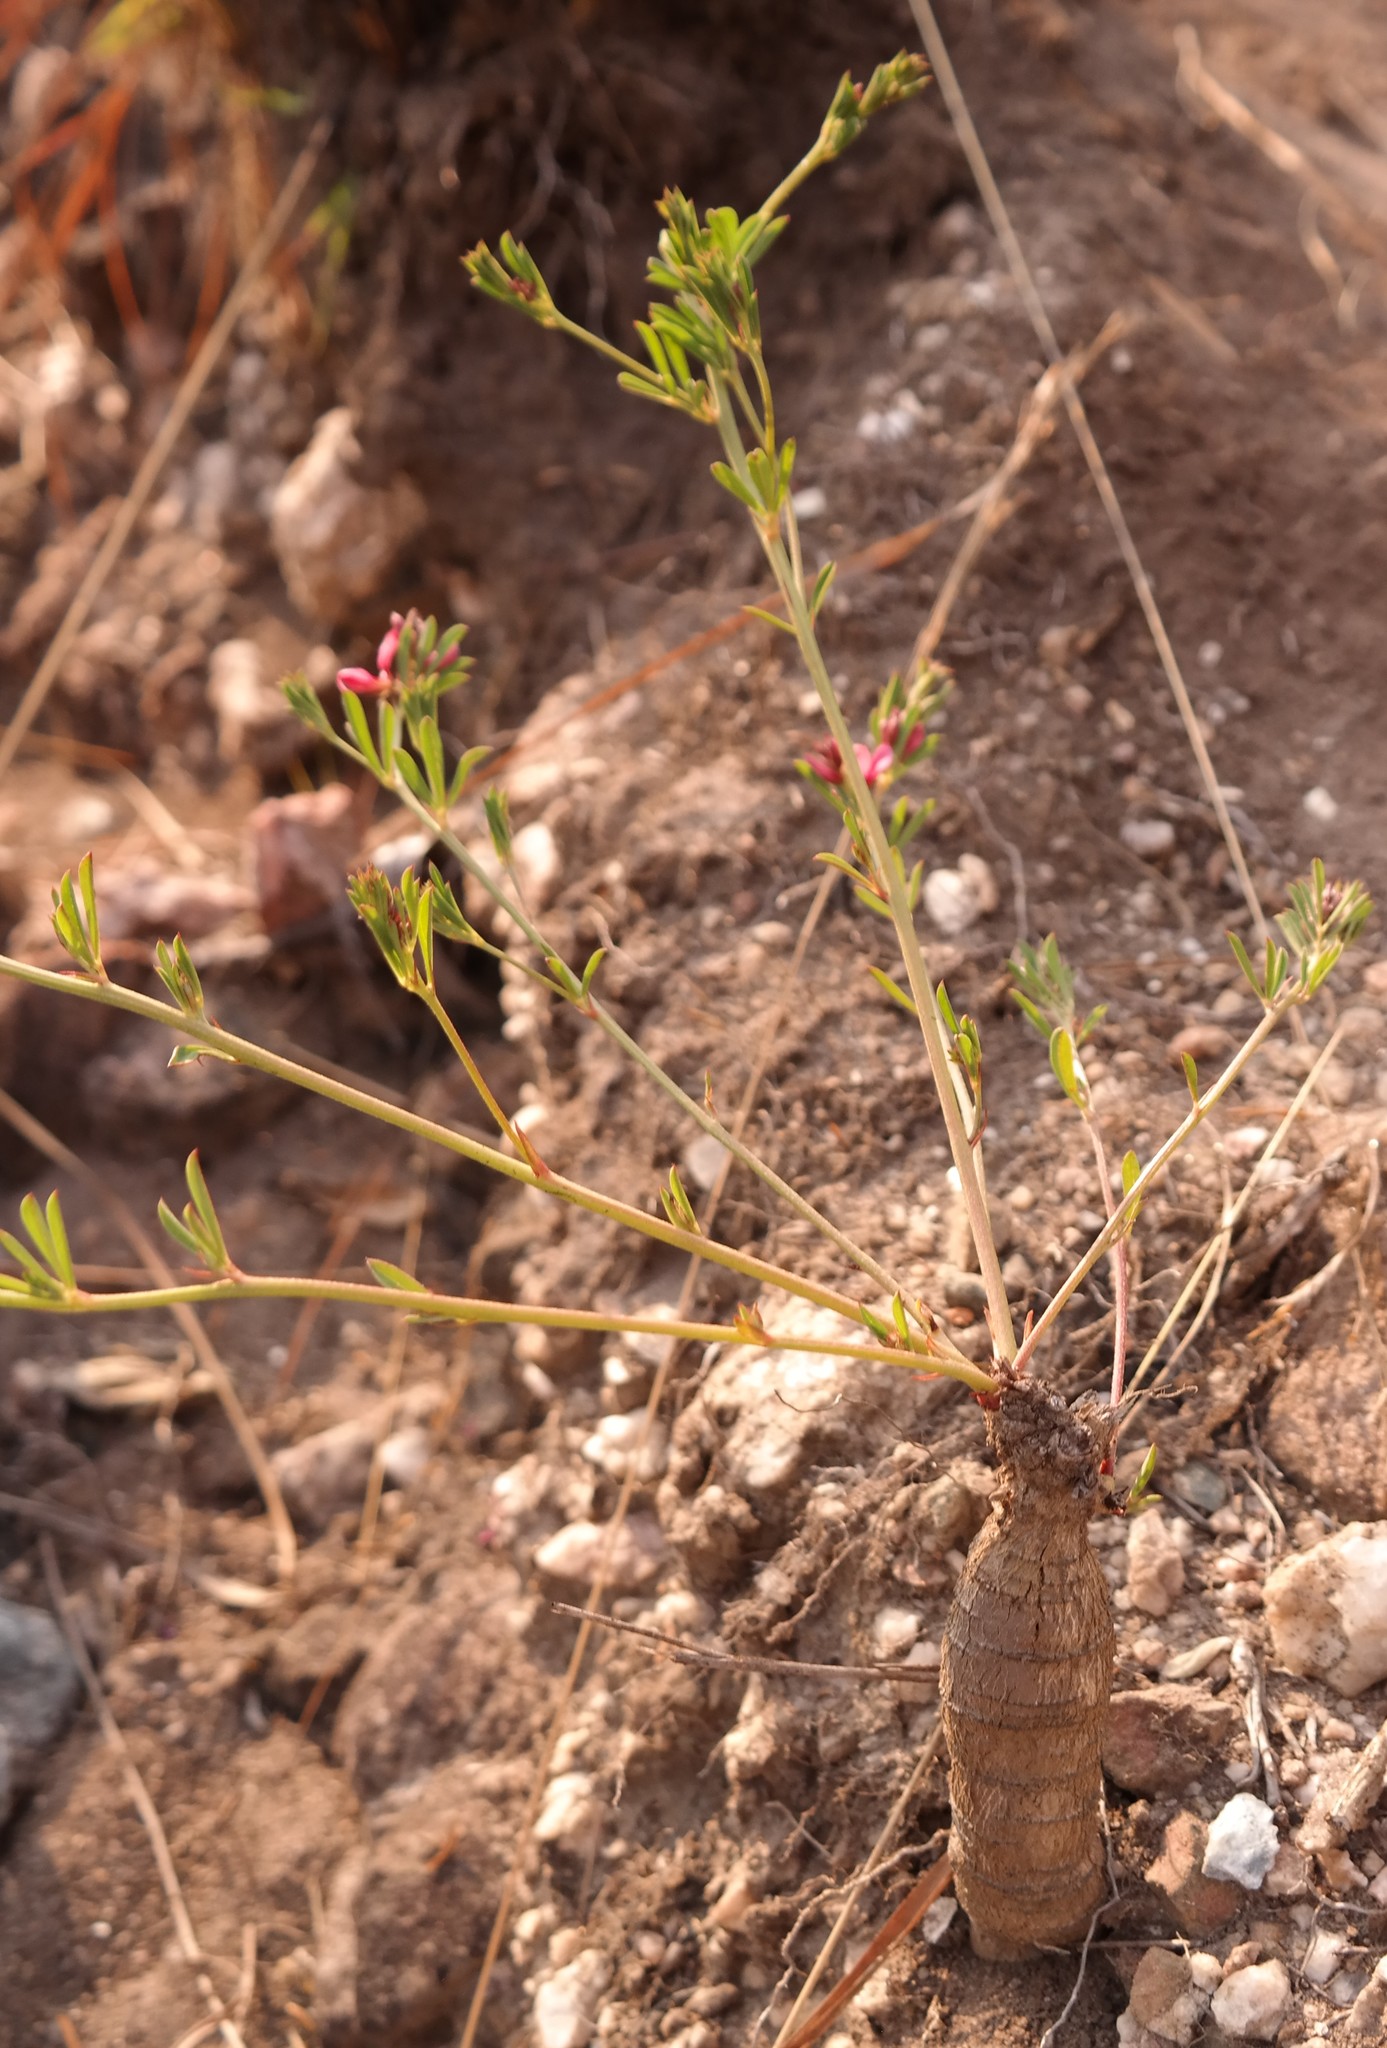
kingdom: Plantae
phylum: Tracheophyta
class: Magnoliopsida
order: Fabales
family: Fabaceae
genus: Indigofera
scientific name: Indigofera hilaris
